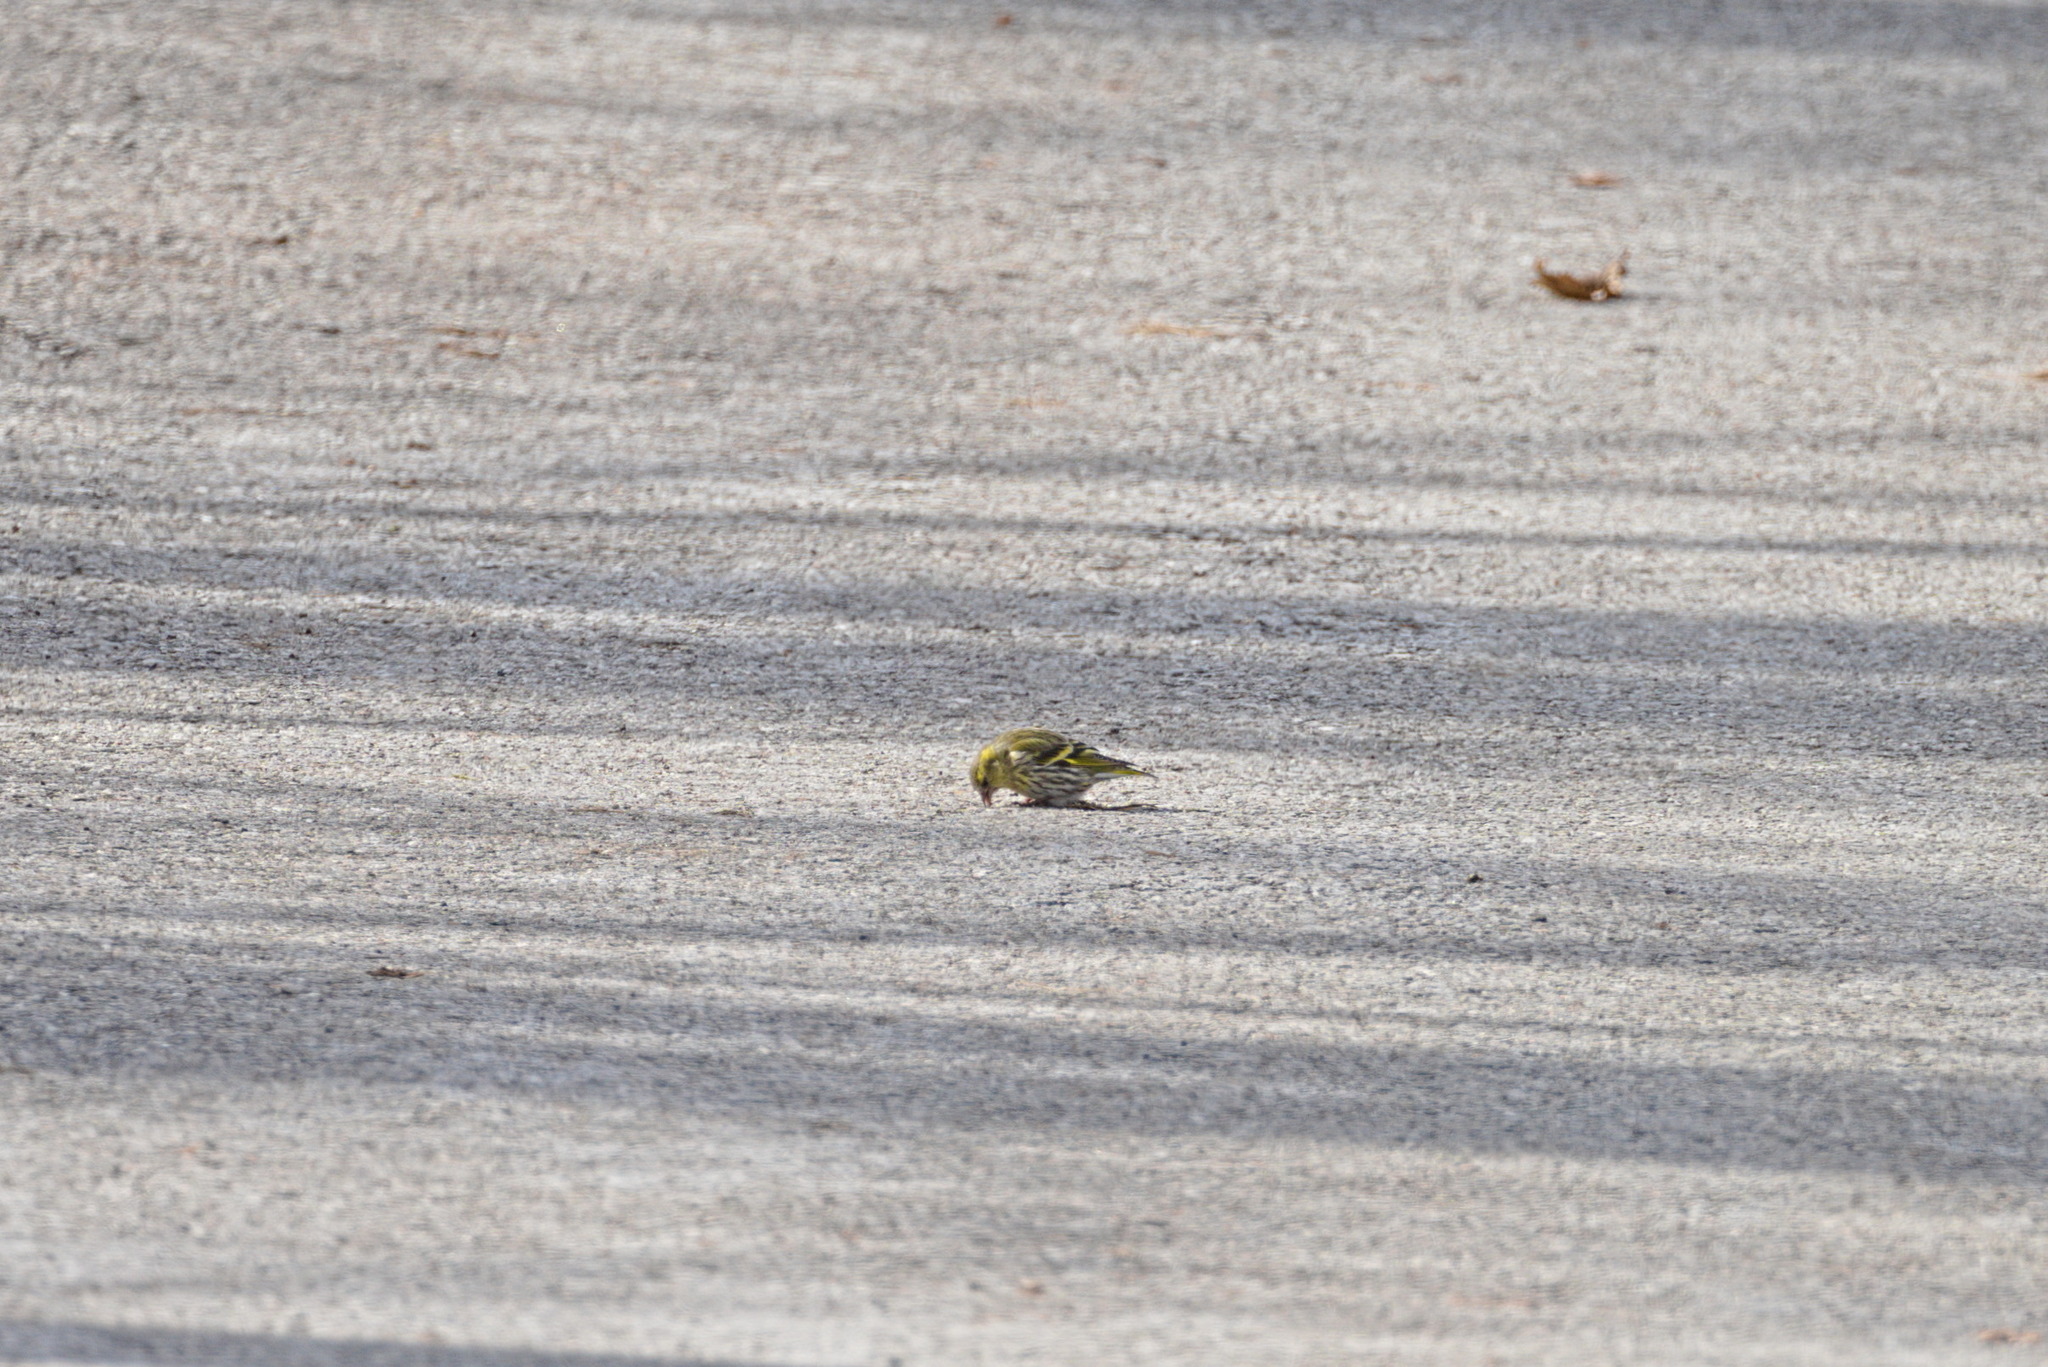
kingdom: Animalia
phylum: Chordata
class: Aves
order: Passeriformes
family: Fringillidae
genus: Spinus
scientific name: Spinus spinus
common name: Eurasian siskin
